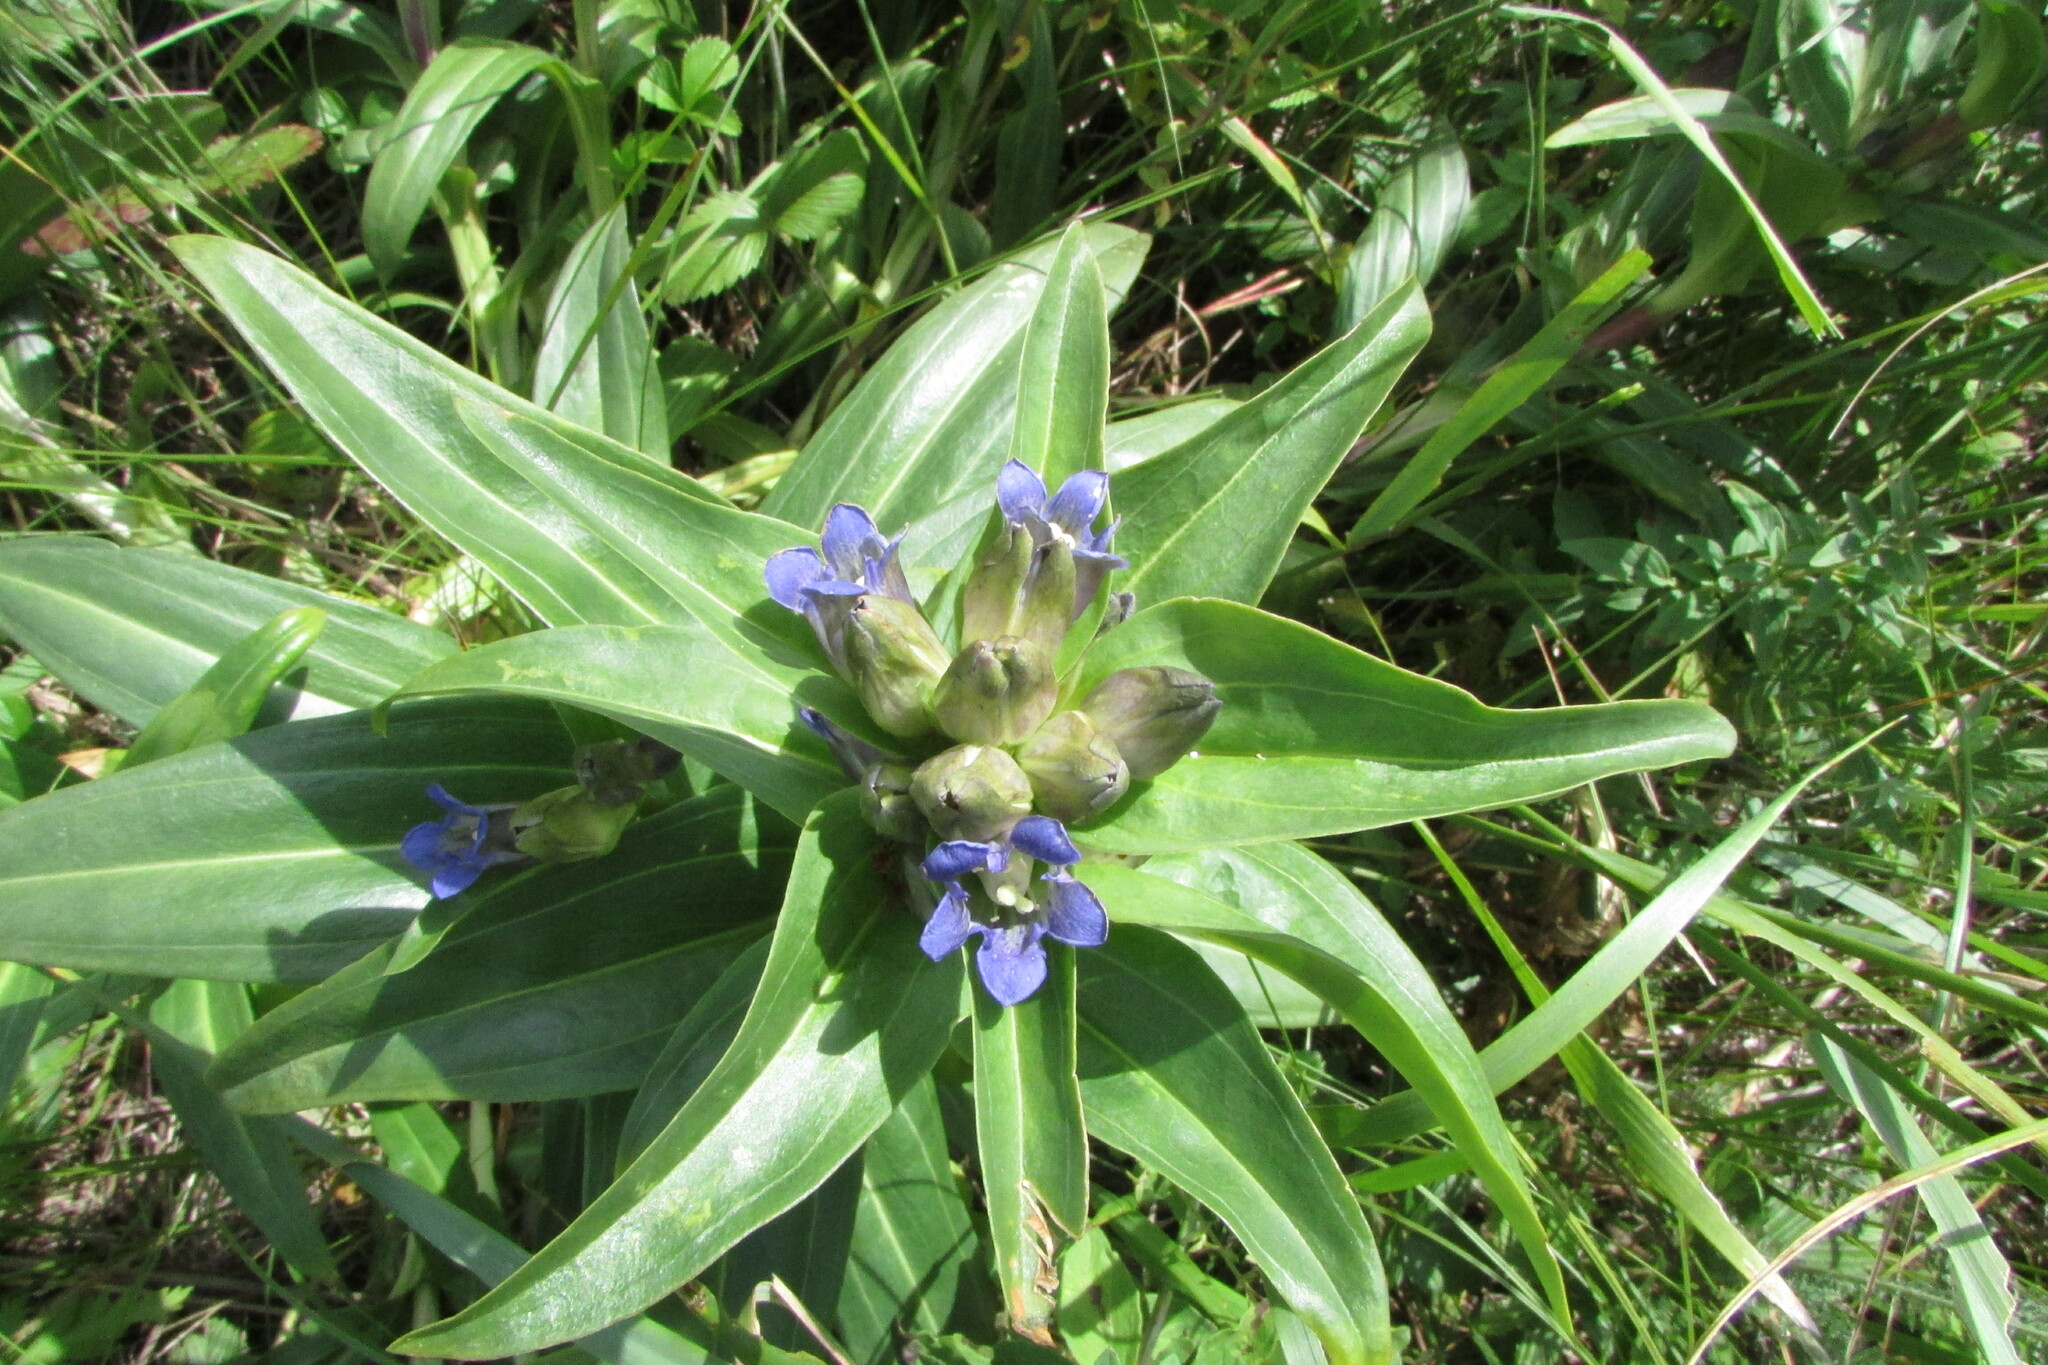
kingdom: Plantae
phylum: Tracheophyta
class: Magnoliopsida
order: Gentianales
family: Gentianaceae
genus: Gentiana
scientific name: Gentiana cruciata
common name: Cross gentian
